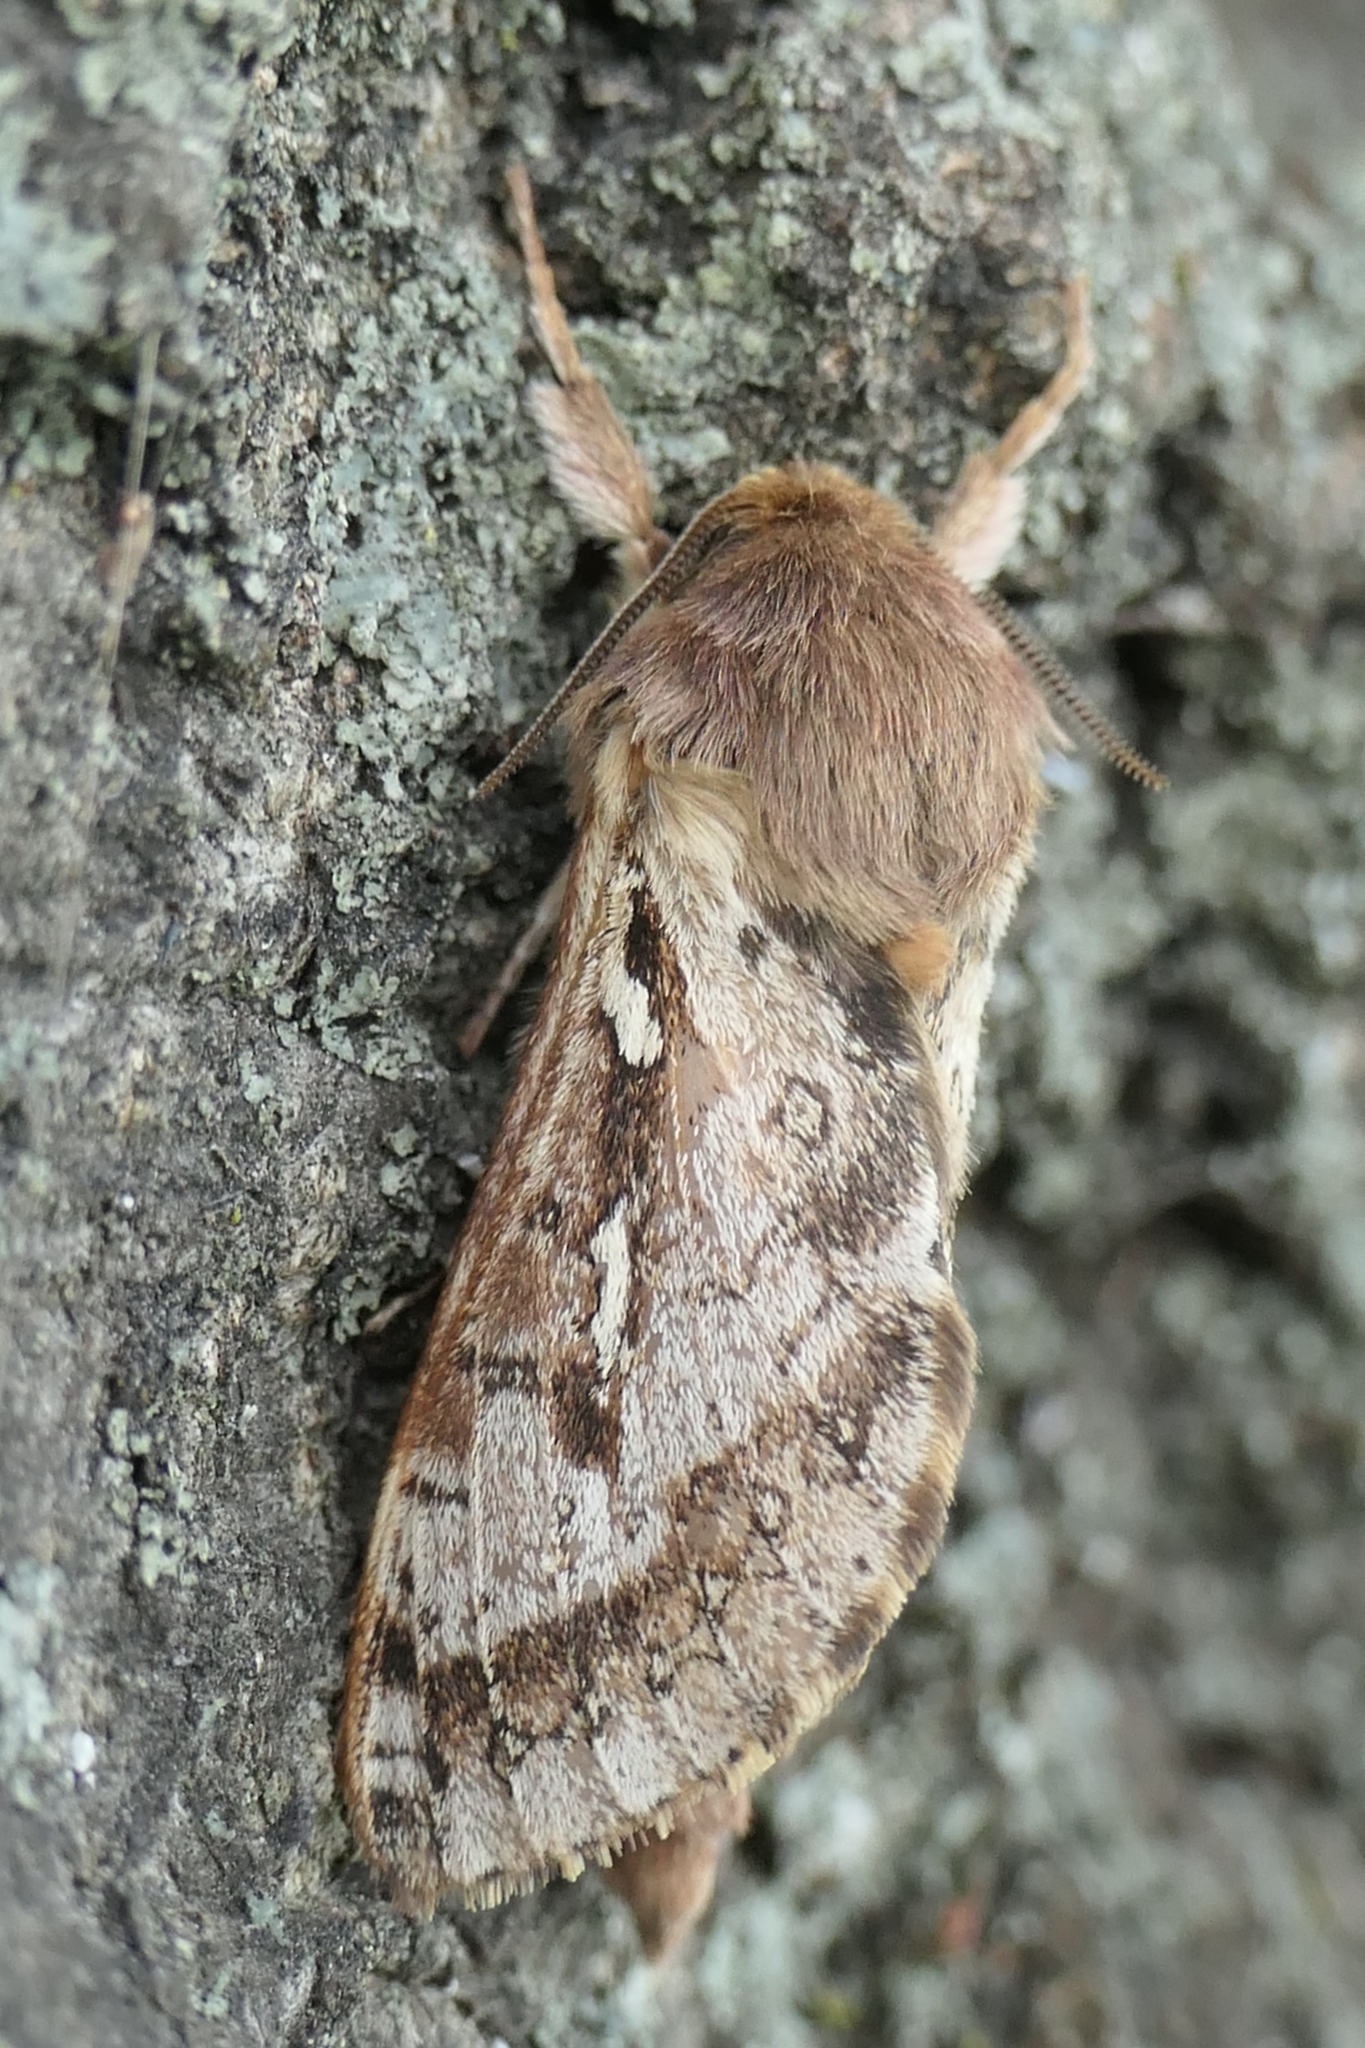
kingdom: Animalia
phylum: Arthropoda
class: Insecta
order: Lepidoptera
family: Hepialidae
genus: Wiseana
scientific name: Wiseana cervinata
